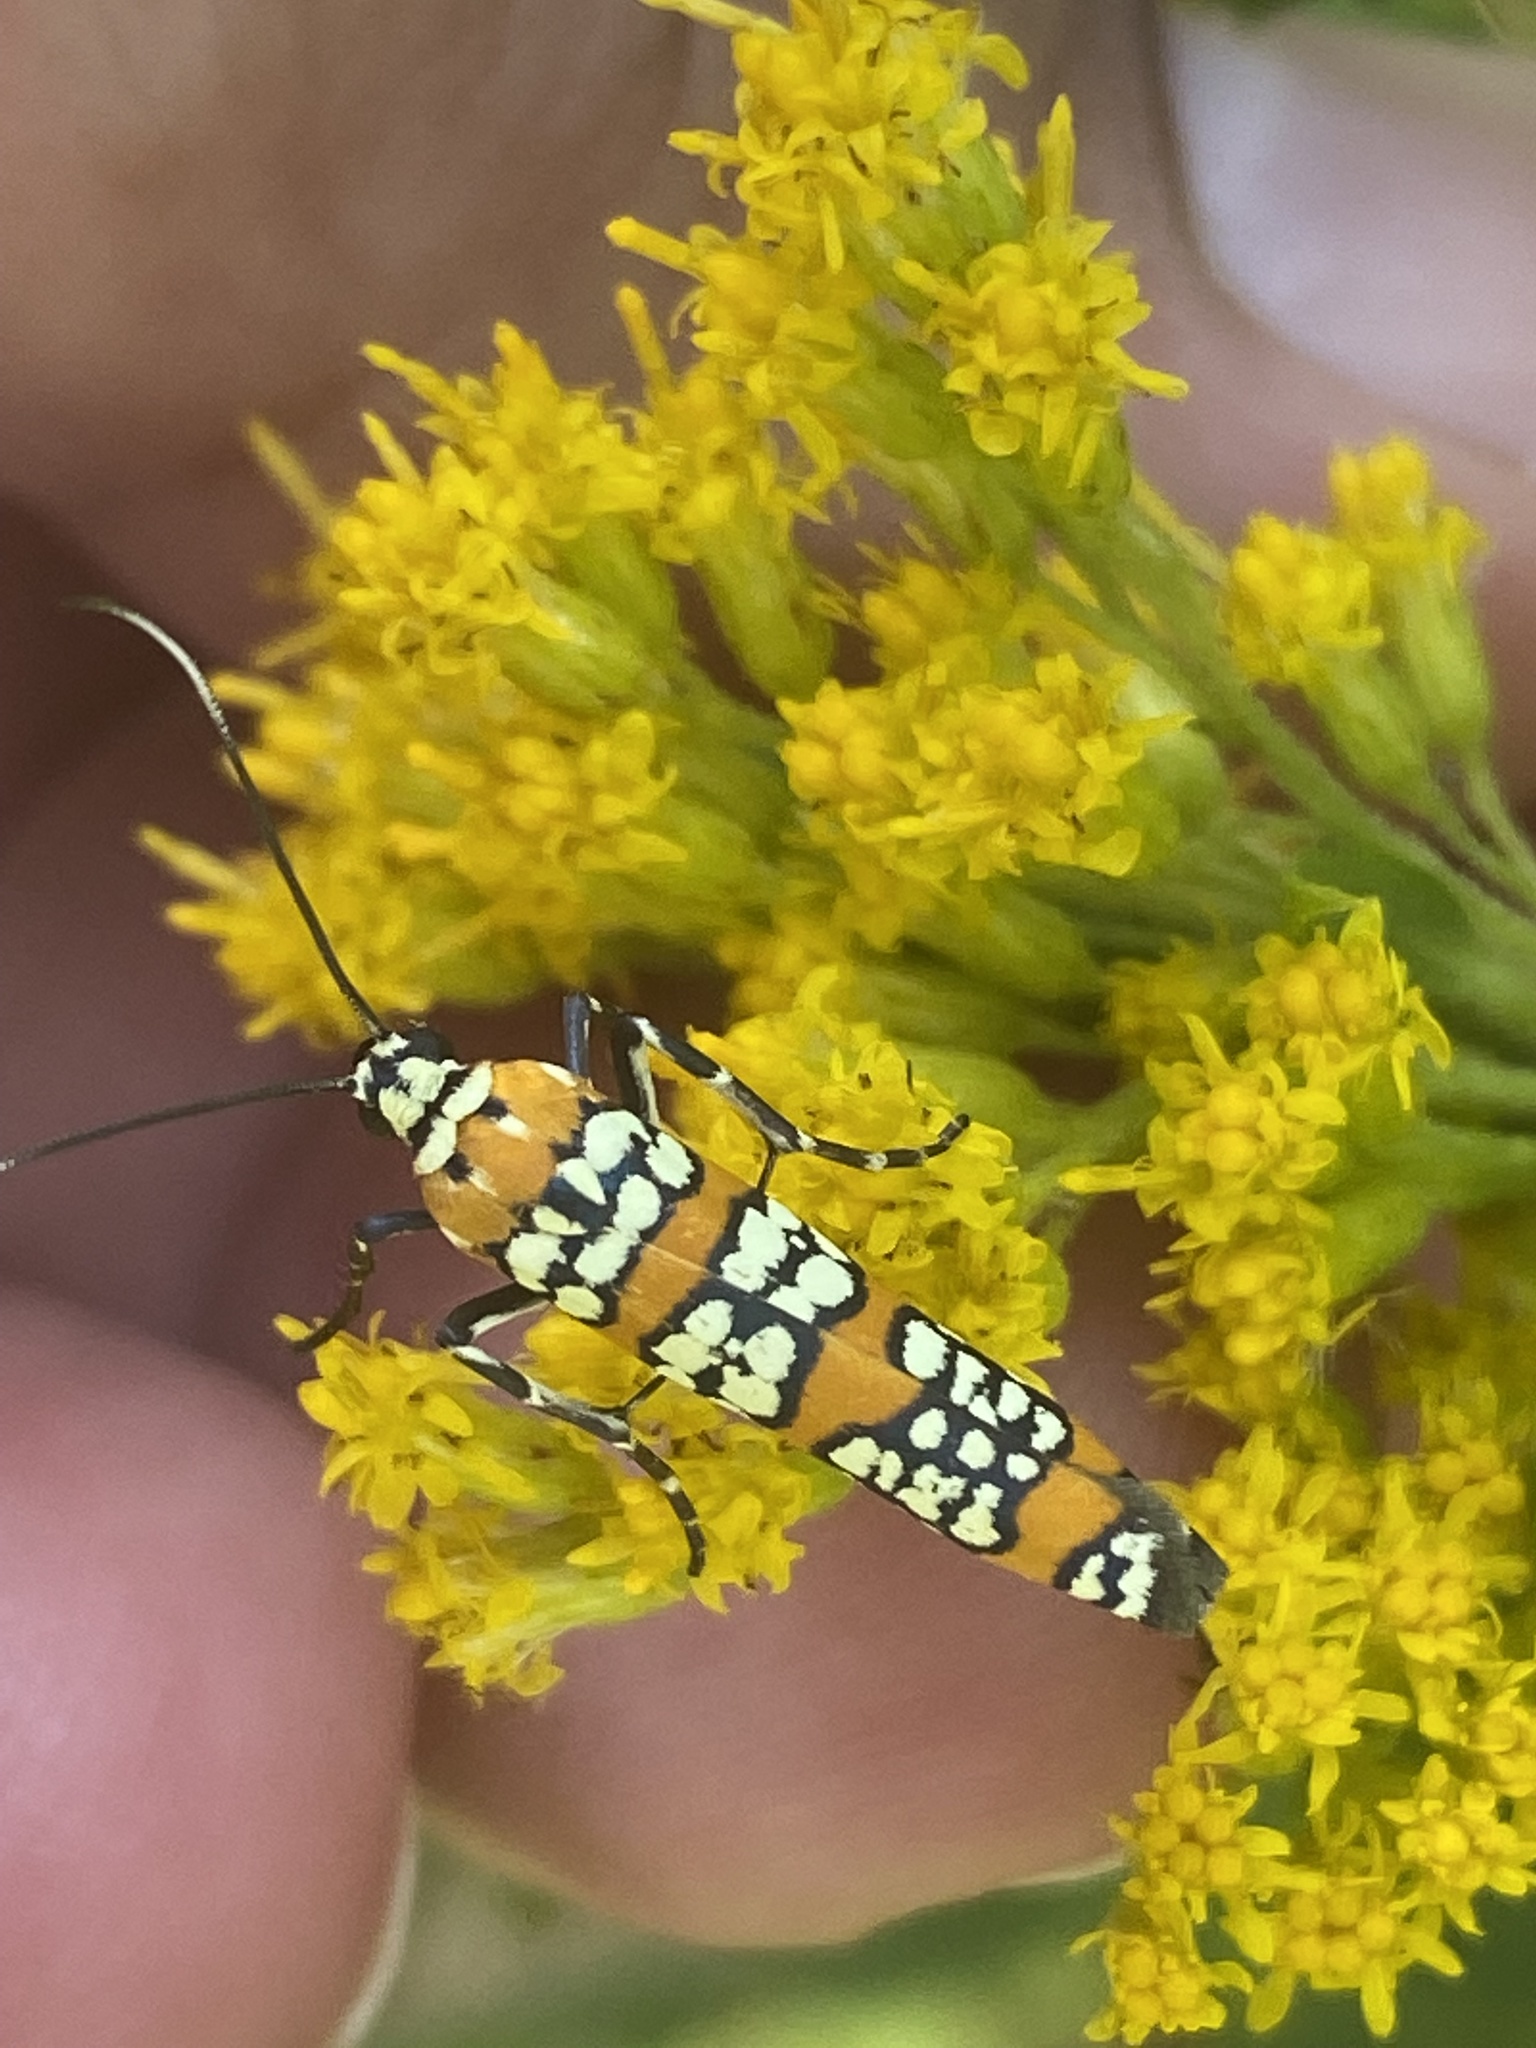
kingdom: Animalia
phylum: Arthropoda
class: Insecta
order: Lepidoptera
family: Attevidae
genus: Atteva
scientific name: Atteva punctella
